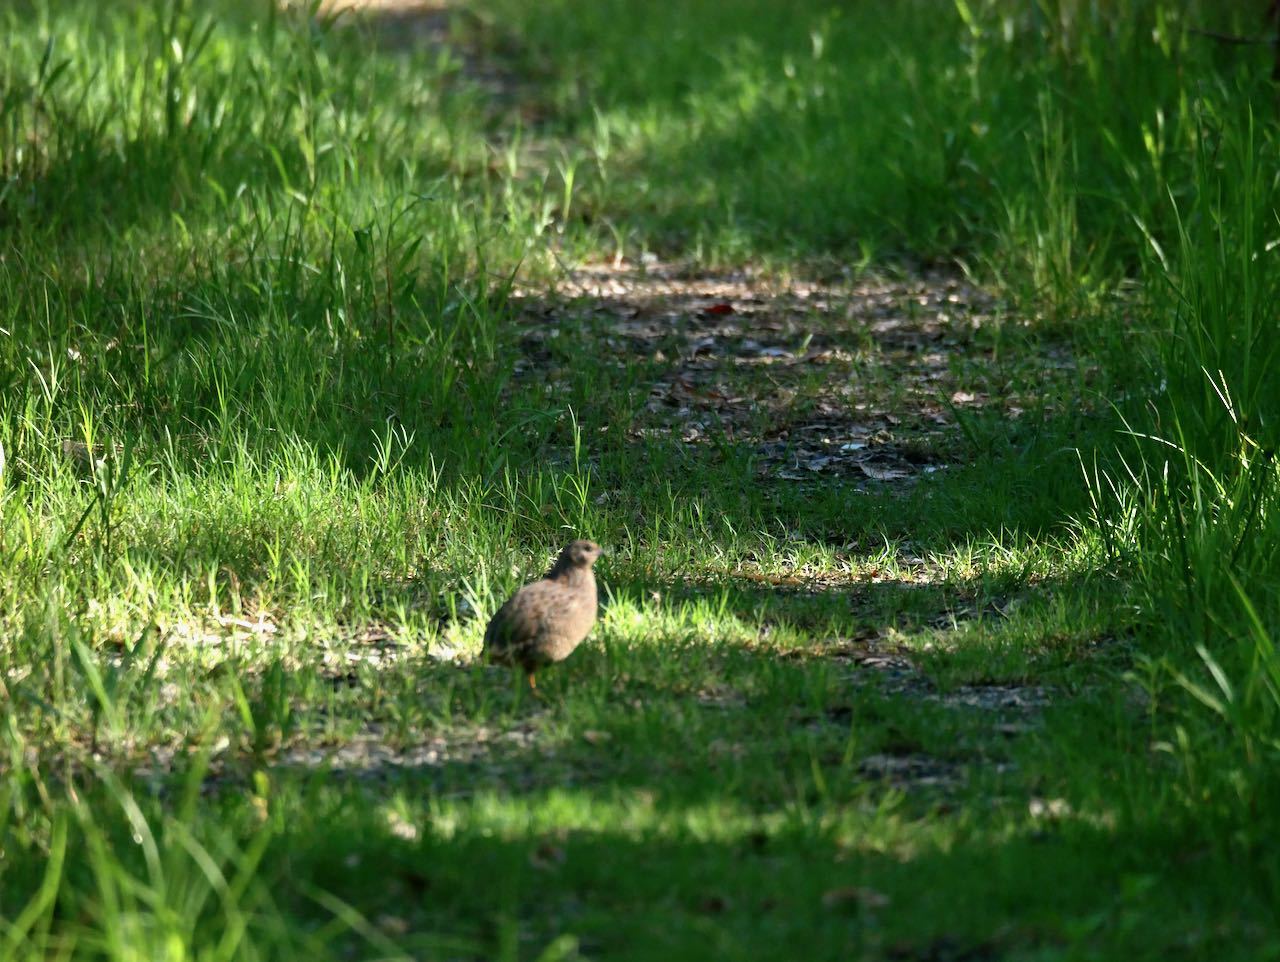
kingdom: Animalia
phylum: Chordata
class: Aves
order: Galliformes
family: Phasianidae
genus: Synoicus
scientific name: Synoicus ypsilophorus
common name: Brown quail
